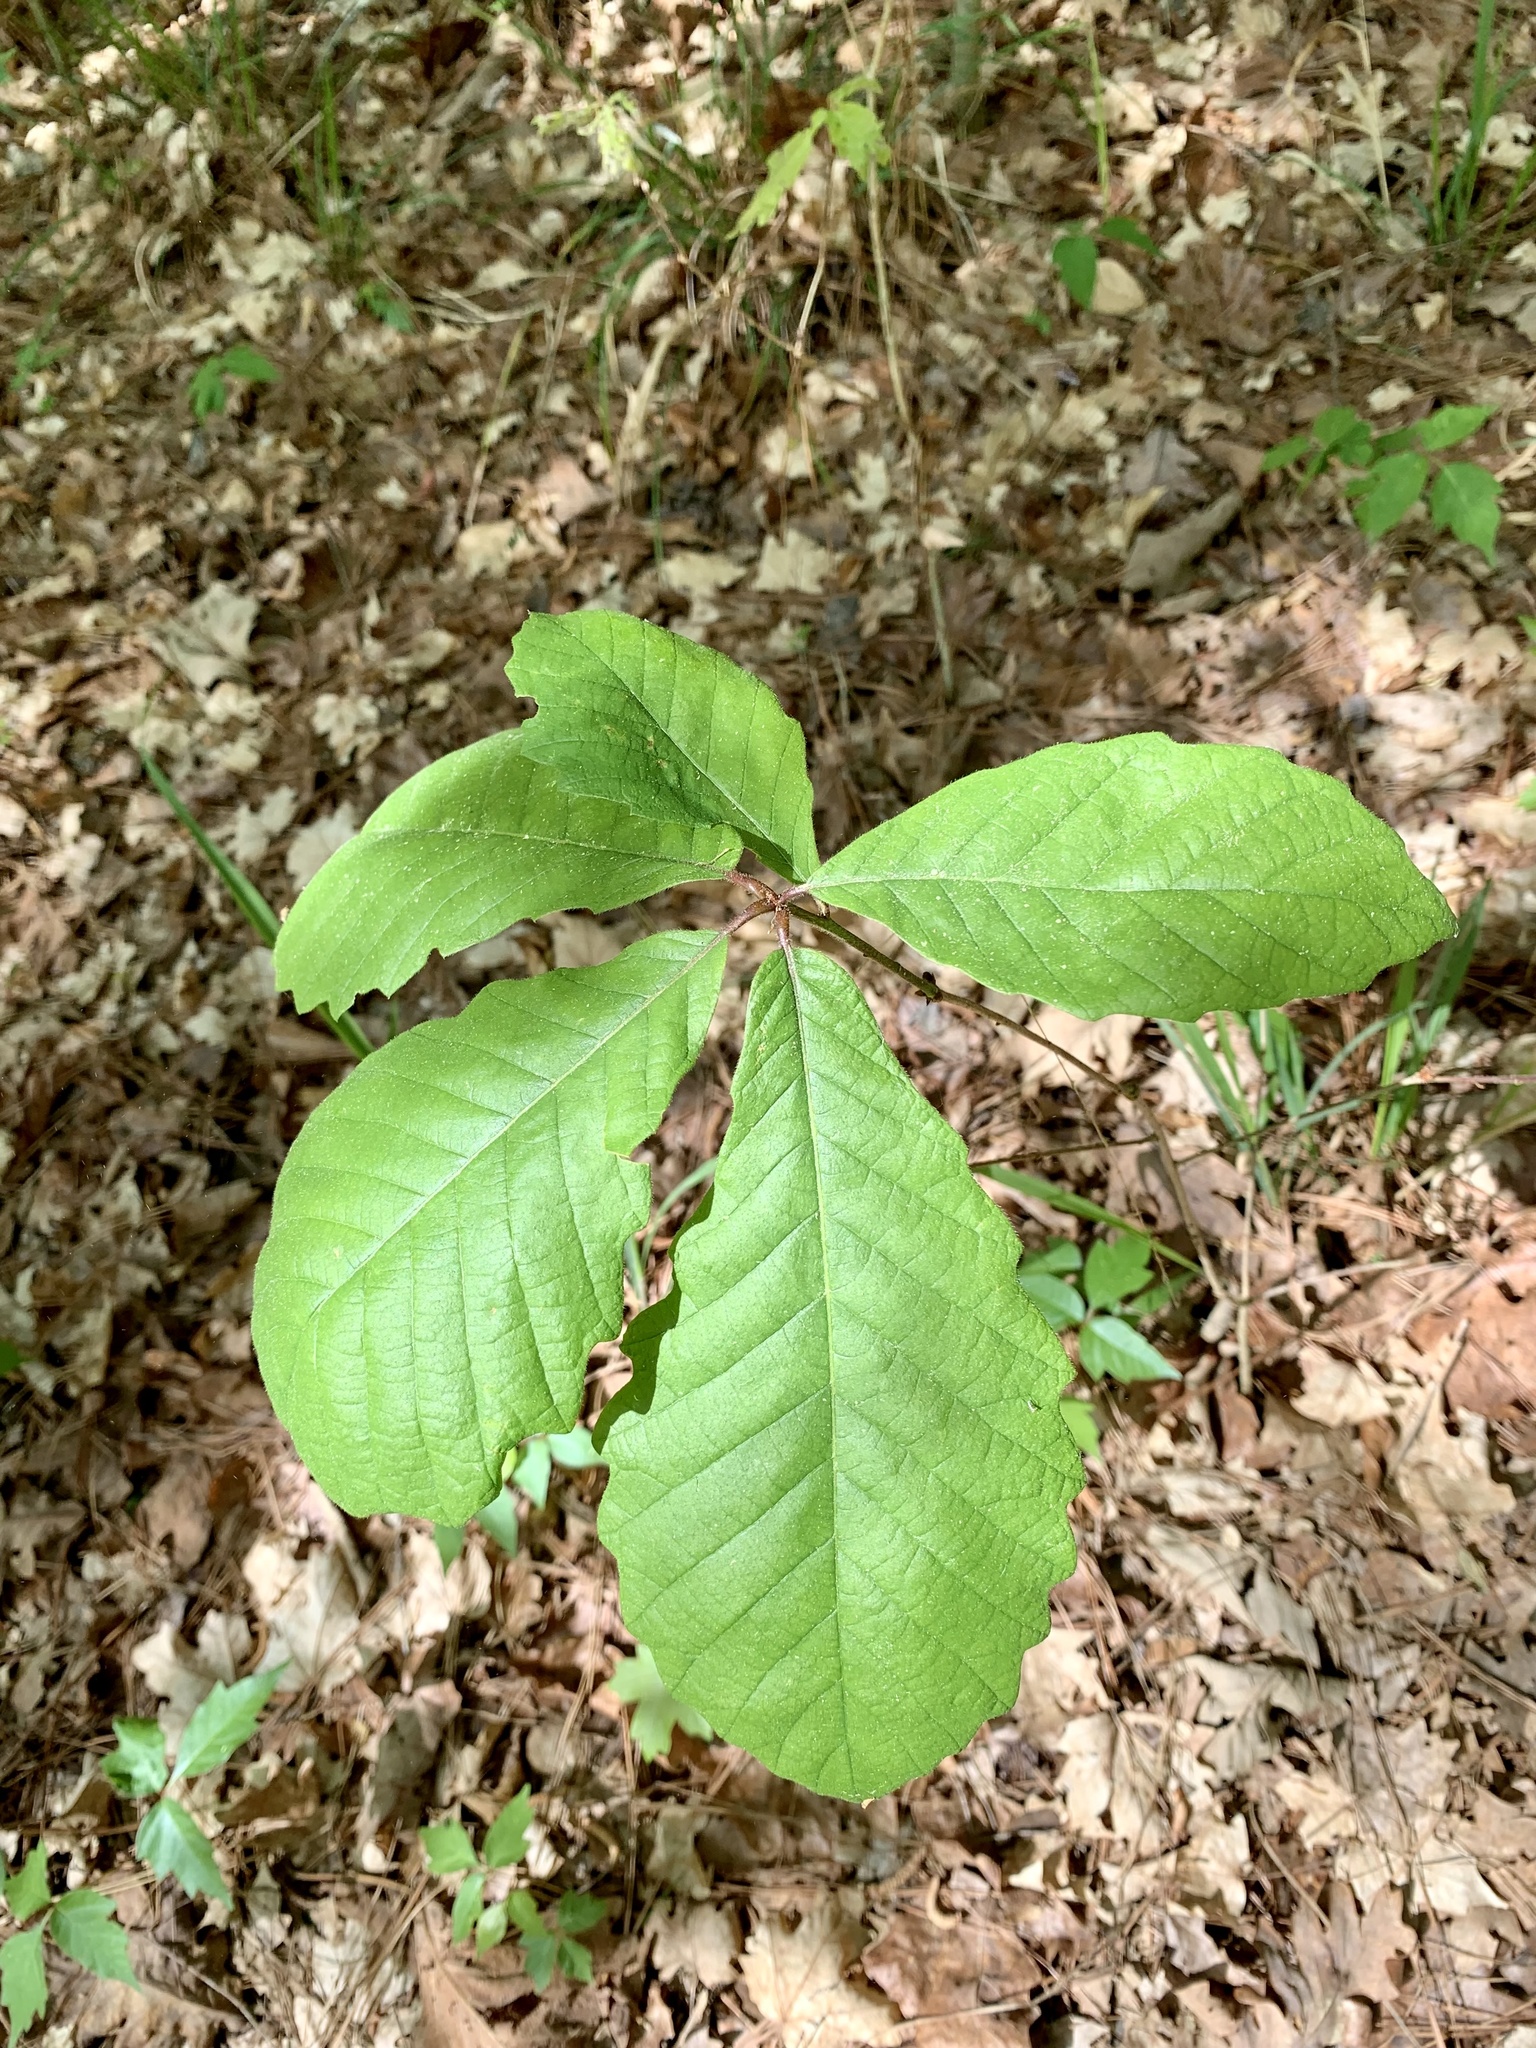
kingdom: Plantae
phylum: Tracheophyta
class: Magnoliopsida
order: Fagales
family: Fagaceae
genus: Quercus
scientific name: Quercus michauxii
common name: Swamp chestnut oak
